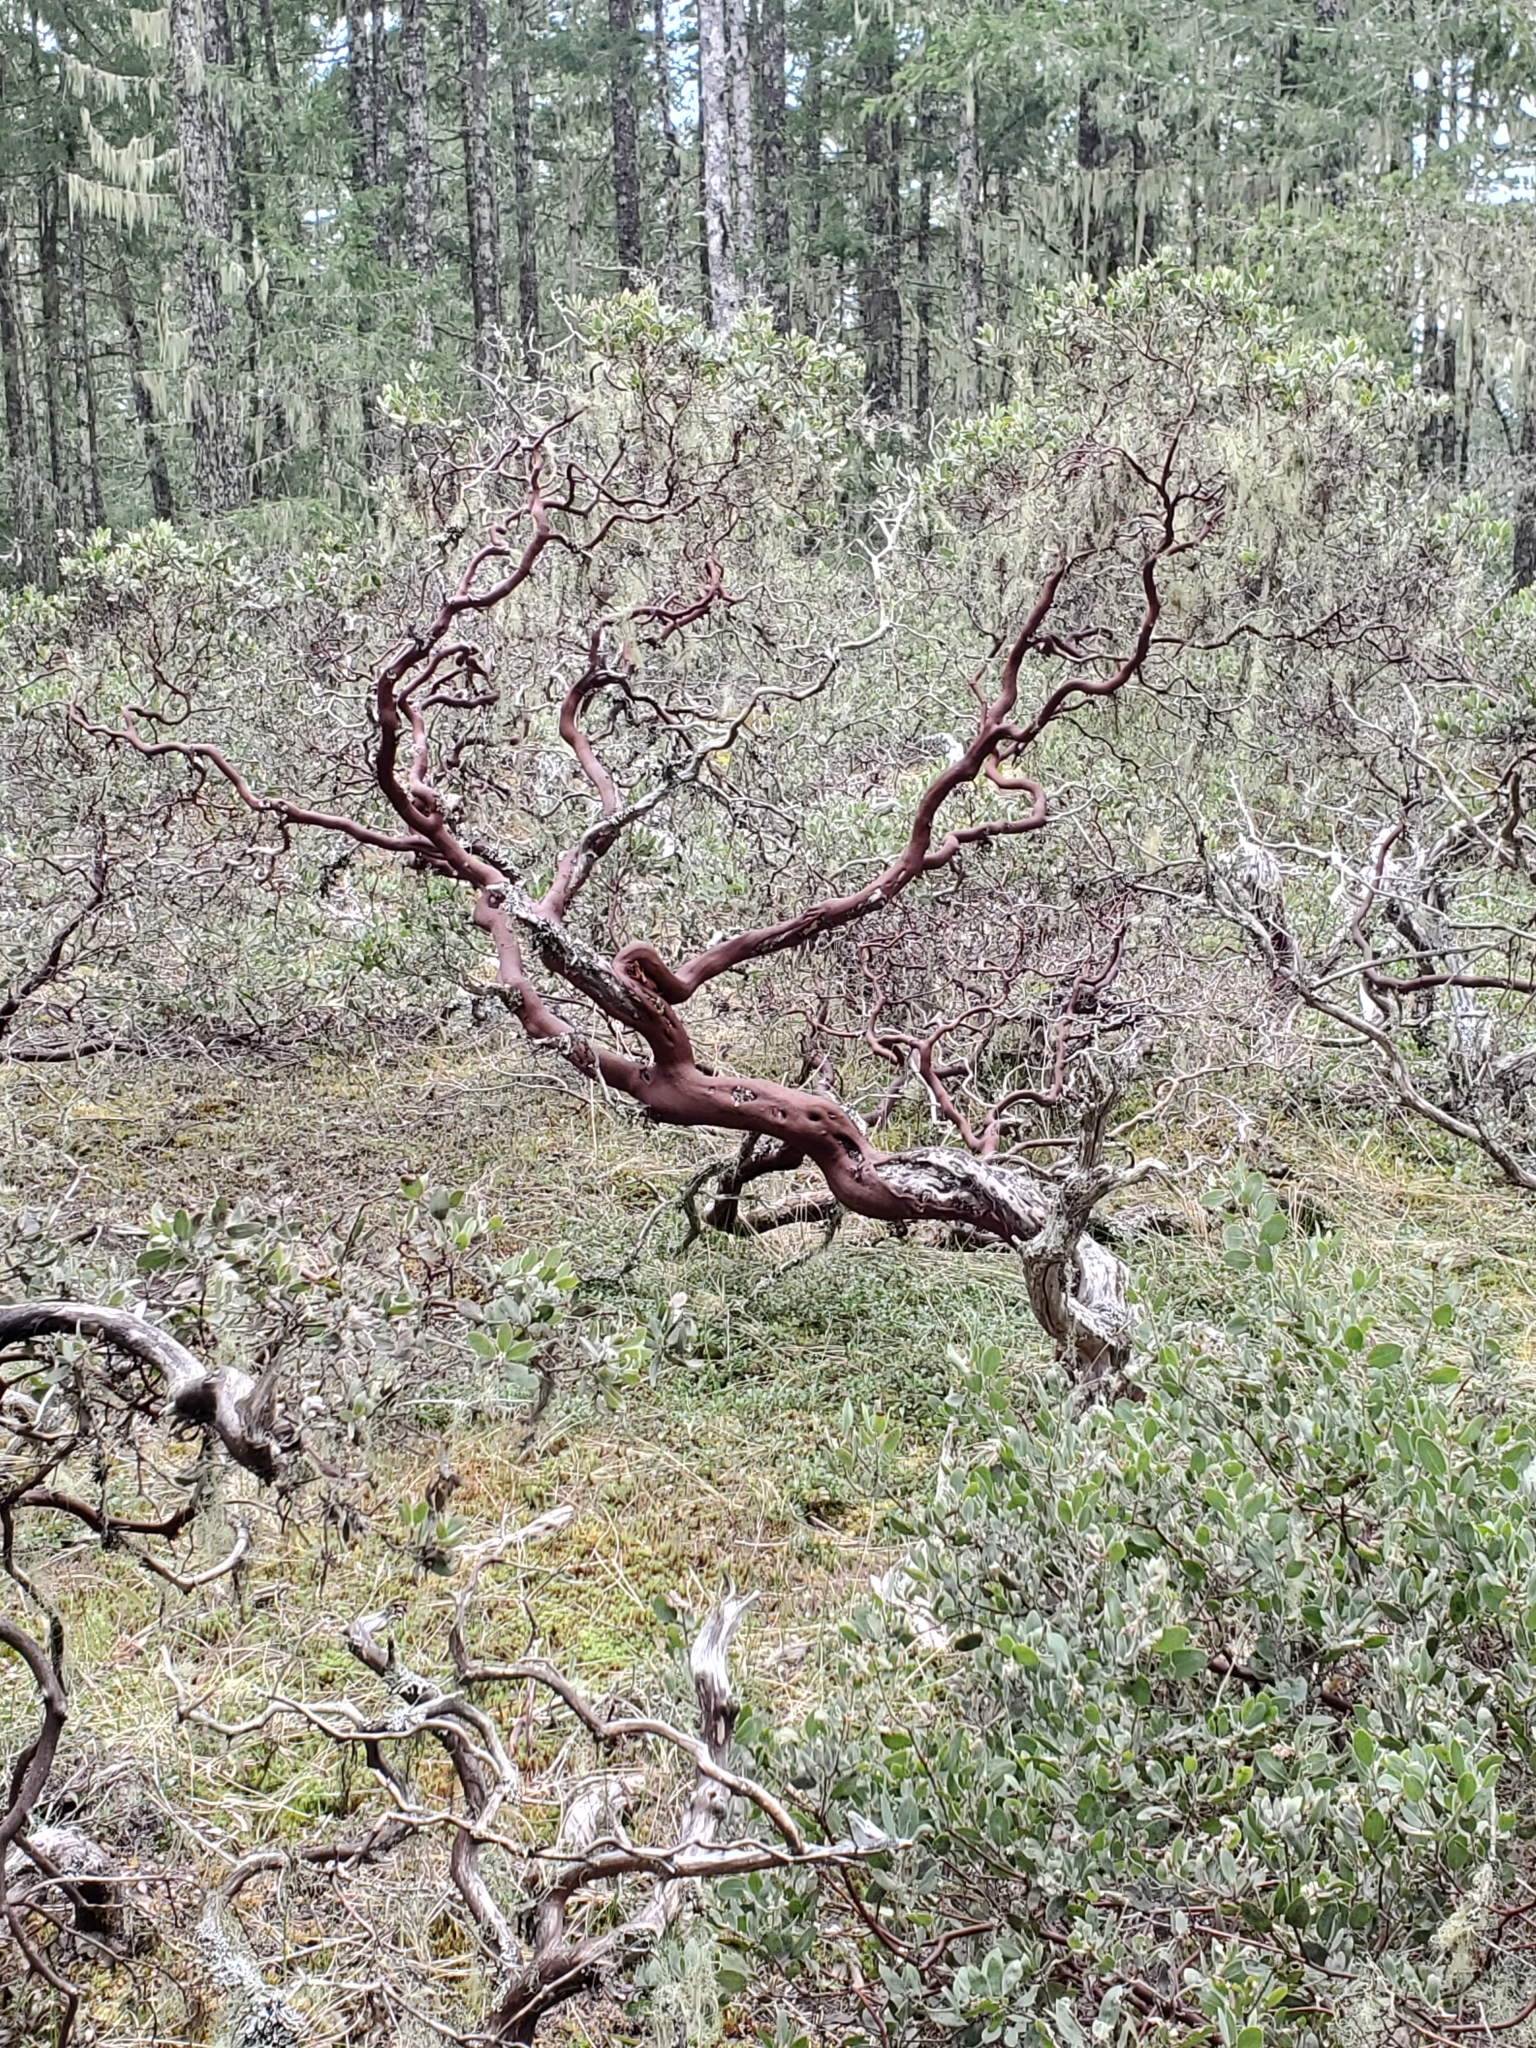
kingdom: Plantae
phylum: Tracheophyta
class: Magnoliopsida
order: Ericales
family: Ericaceae
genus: Arctostaphylos
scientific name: Arctostaphylos columbiana
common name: Bristly bearberry
